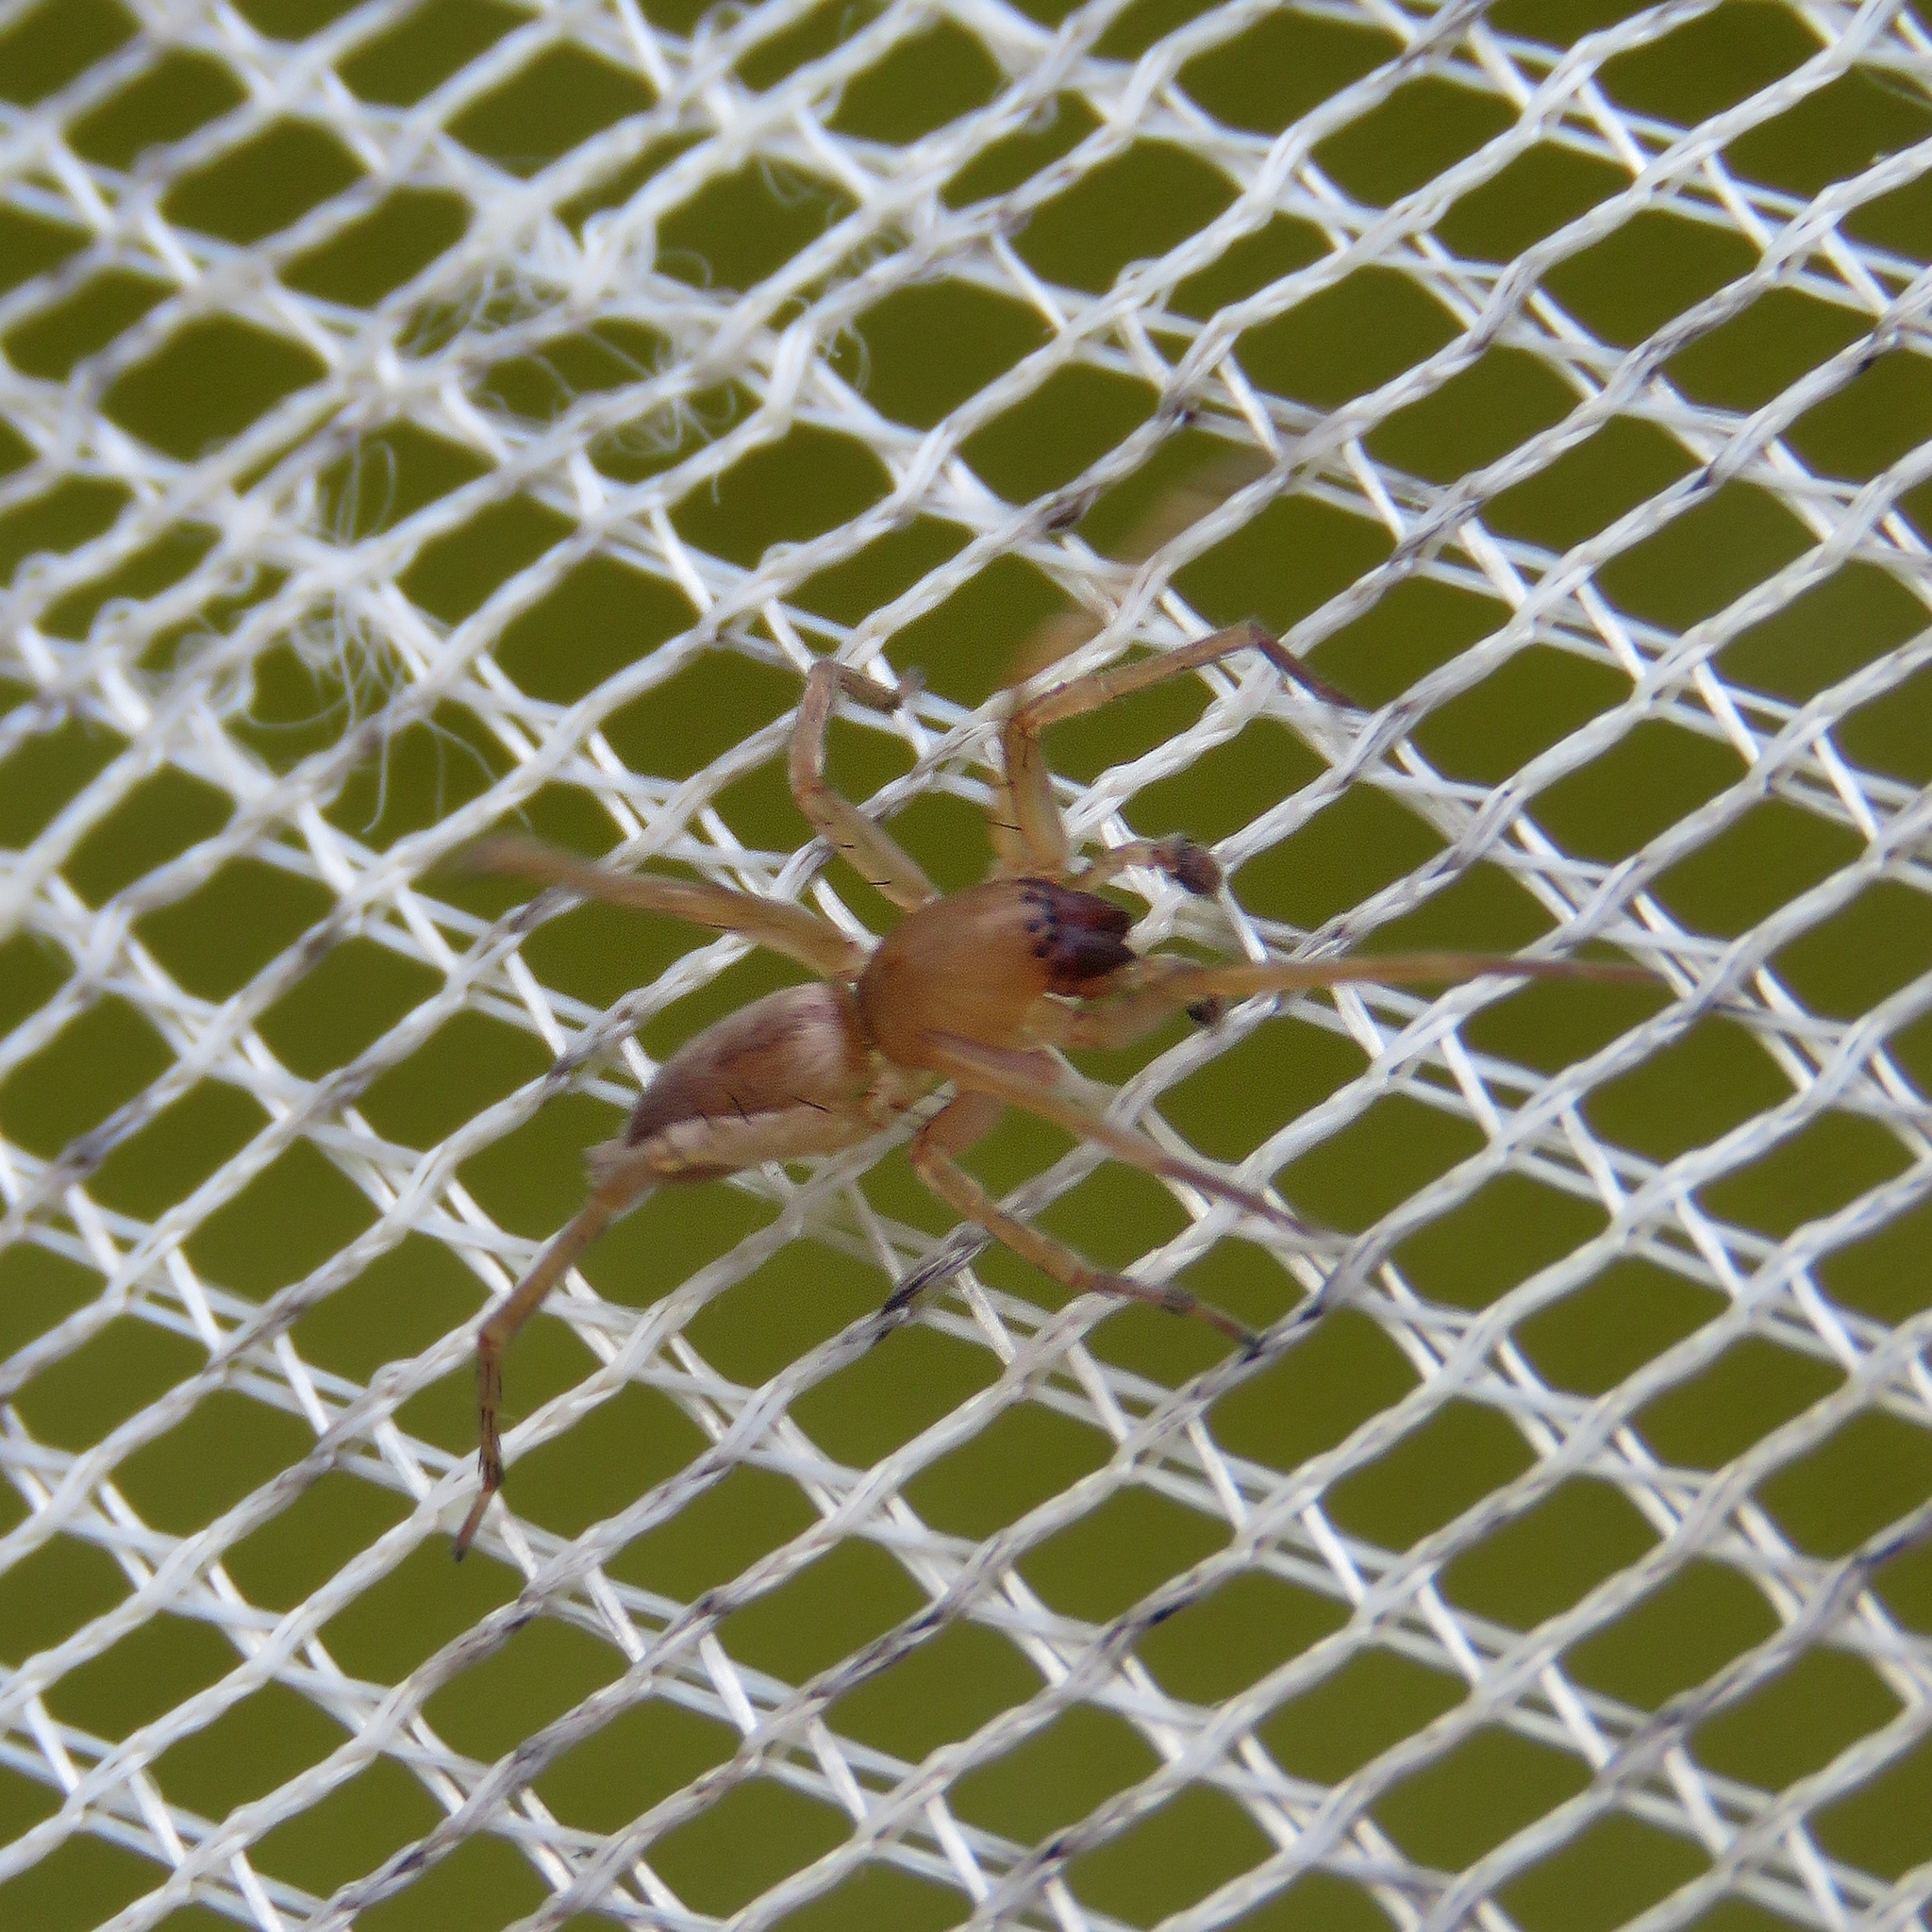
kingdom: Animalia
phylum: Arthropoda
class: Arachnida
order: Araneae
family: Clubionidae
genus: Clubiona
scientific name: Clubiona
